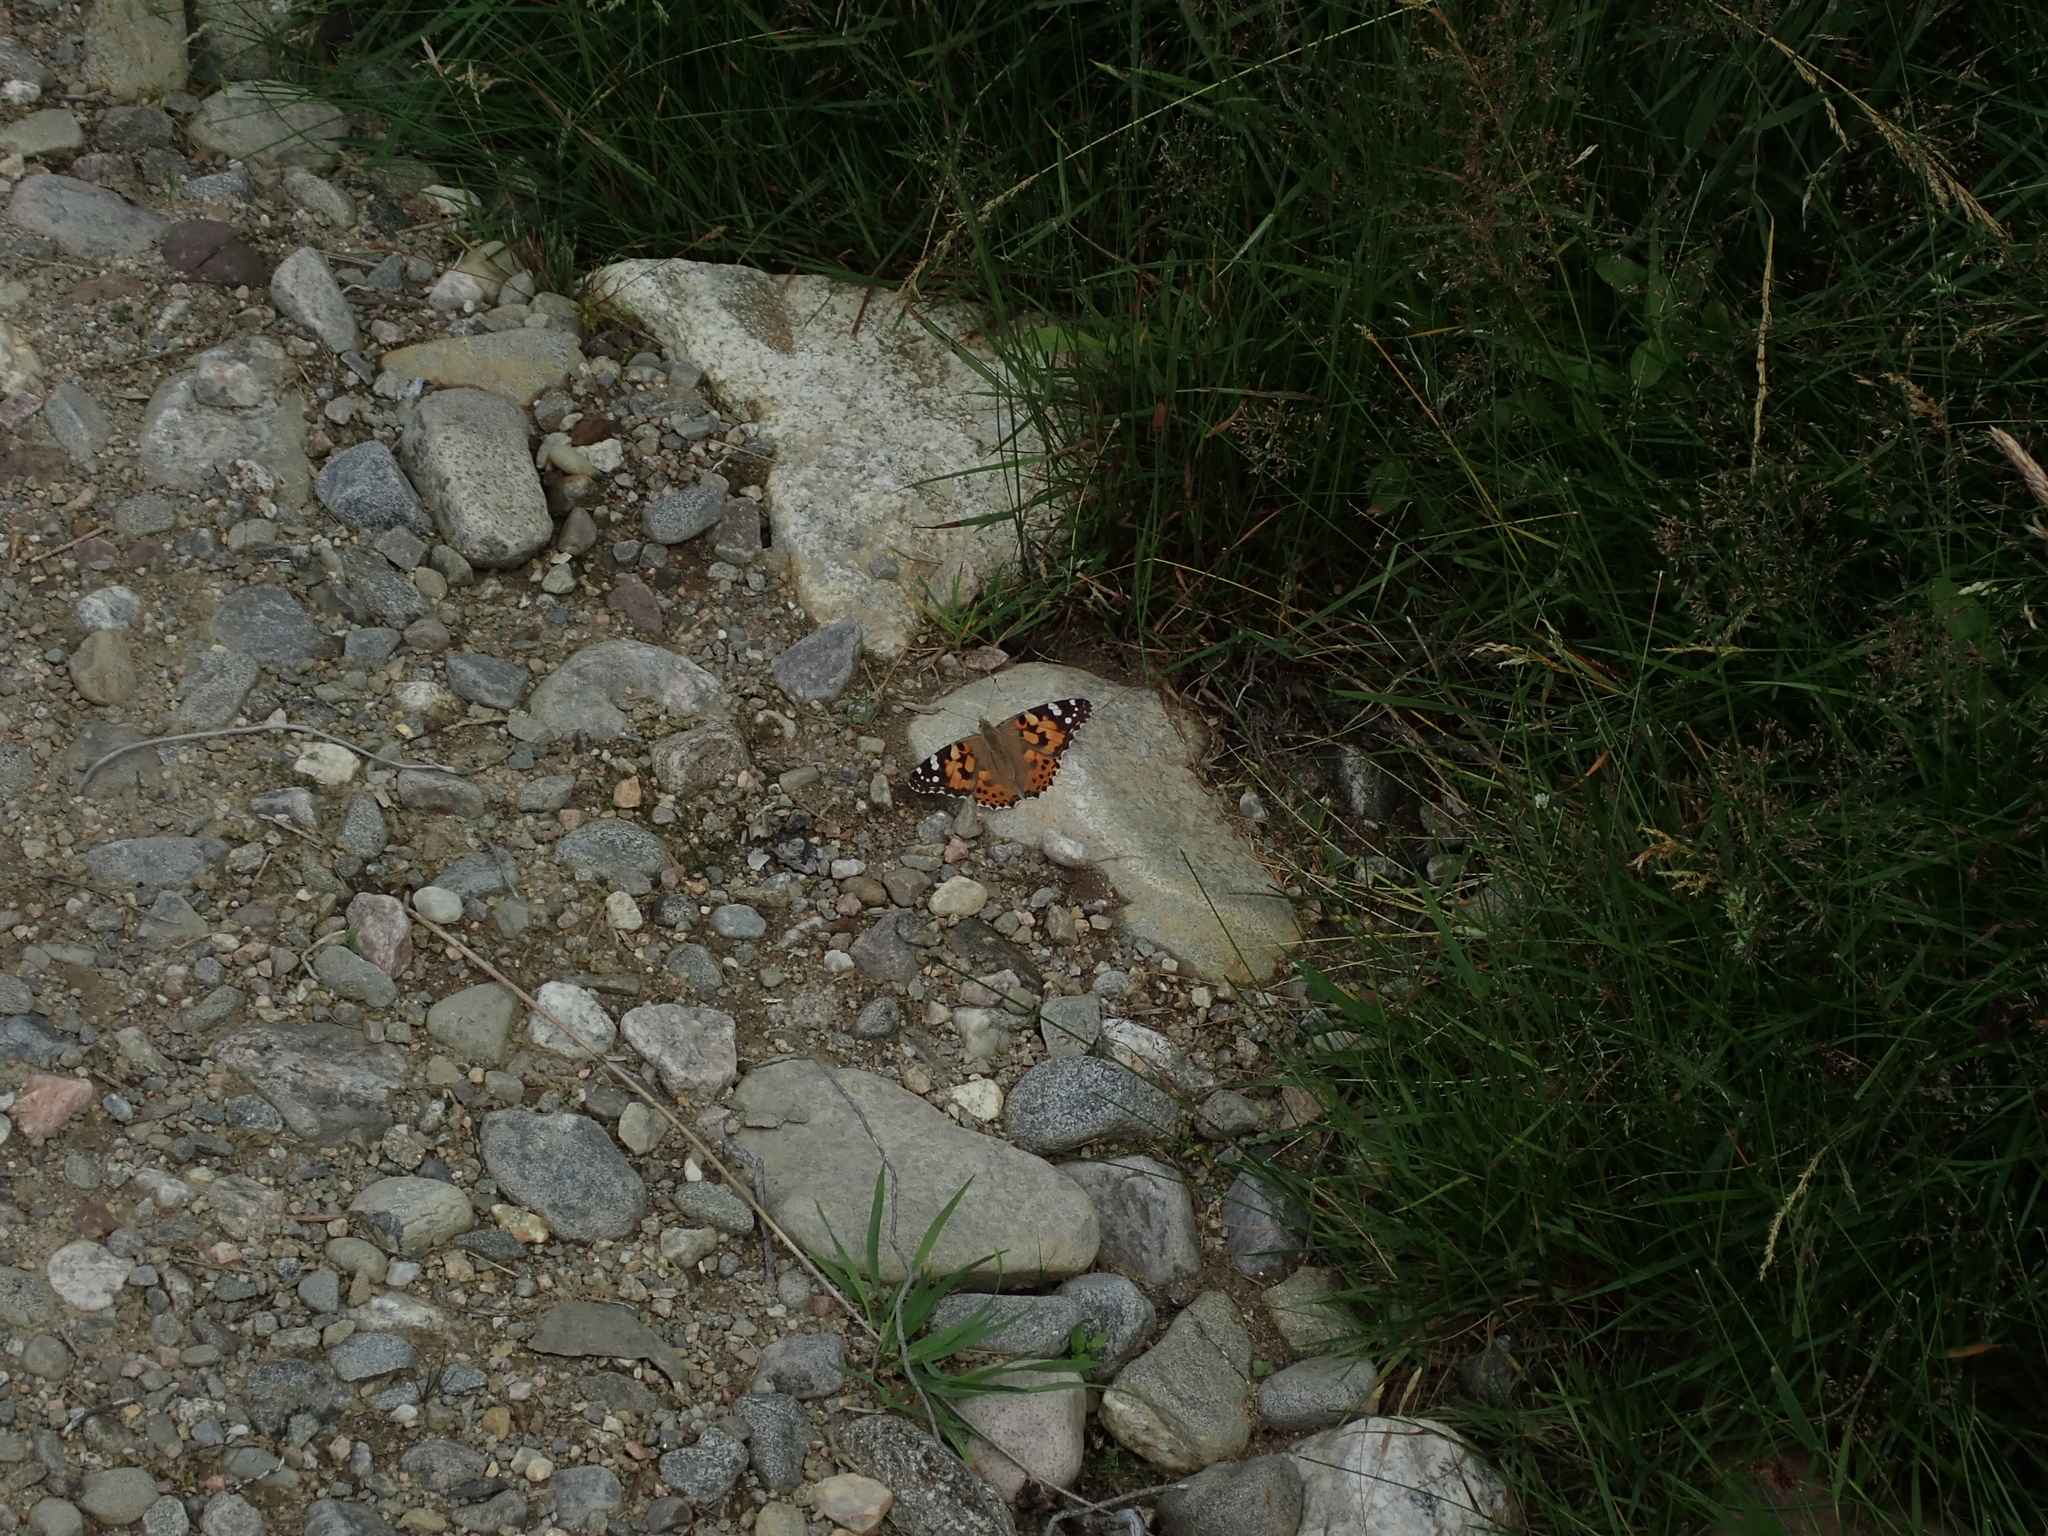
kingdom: Animalia
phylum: Arthropoda
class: Insecta
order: Lepidoptera
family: Nymphalidae
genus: Vanessa
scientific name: Vanessa cardui
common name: Painted lady
